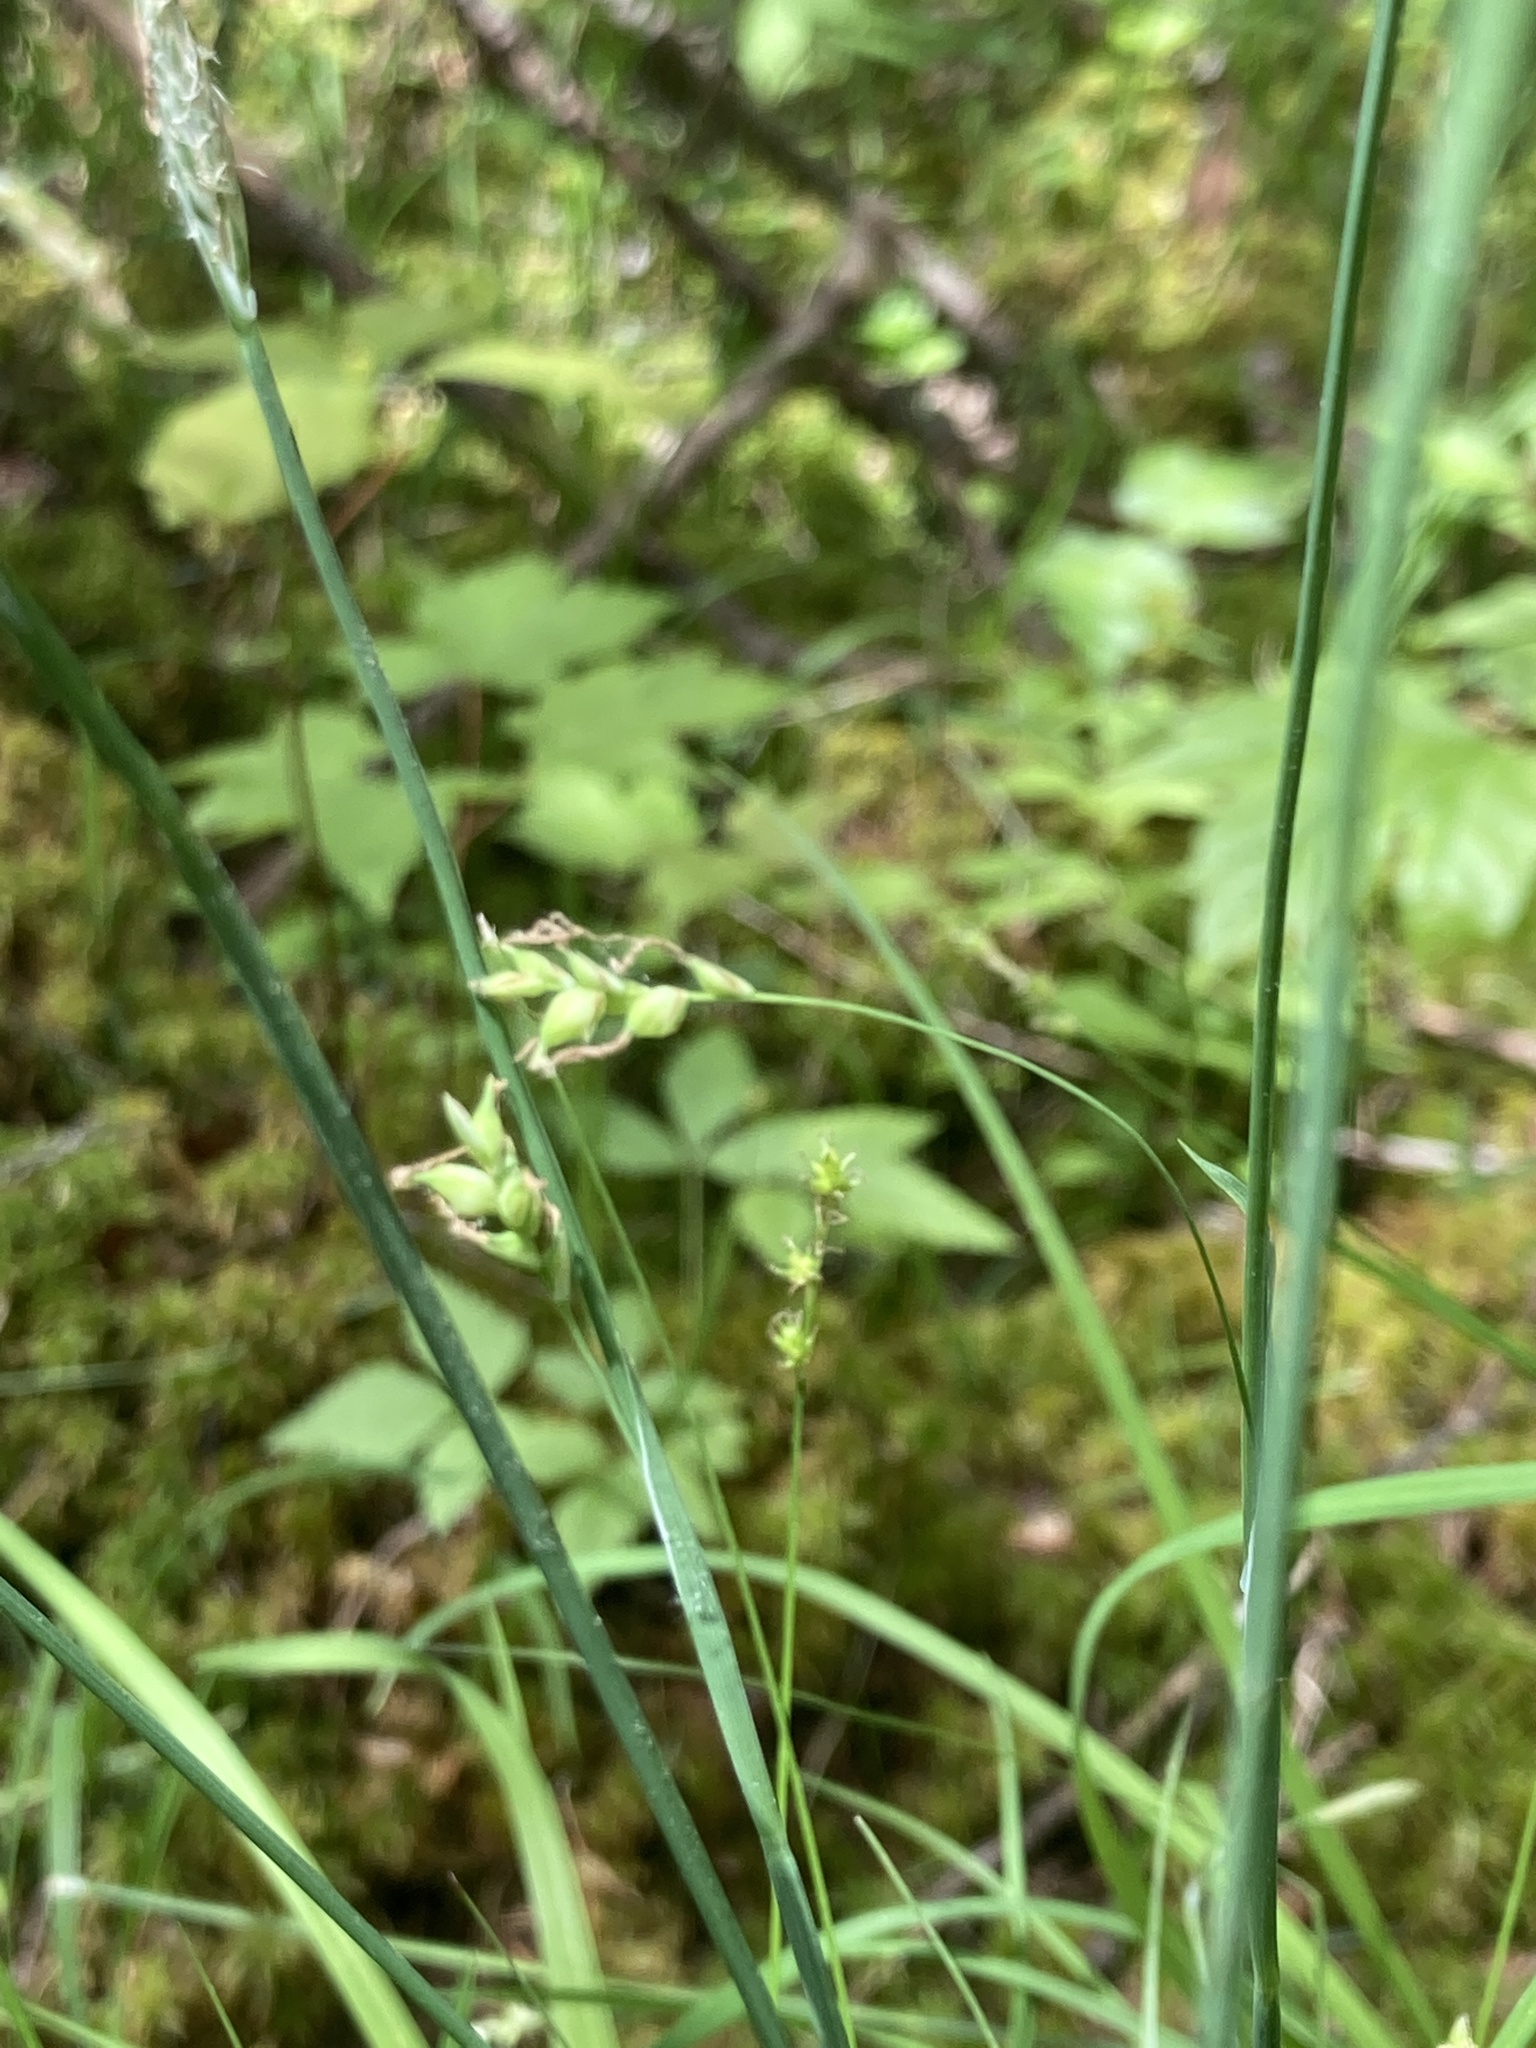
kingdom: Plantae
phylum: Tracheophyta
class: Liliopsida
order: Poales
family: Cyperaceae
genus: Carex
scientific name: Carex vaginata
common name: Sheathed sedge
